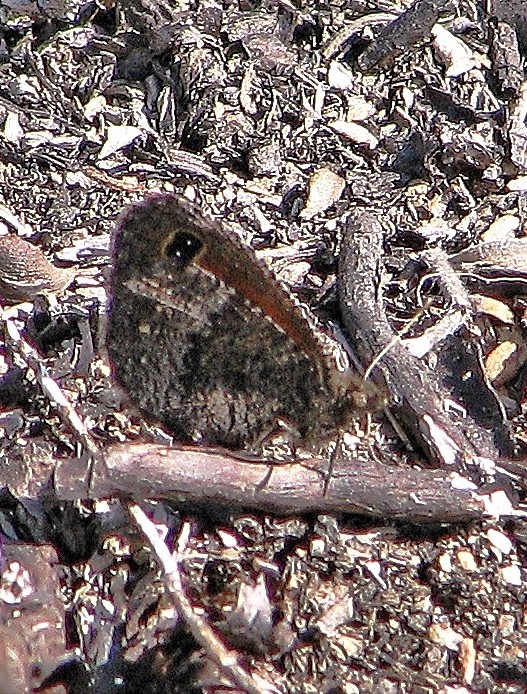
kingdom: Animalia
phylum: Arthropoda
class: Insecta
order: Lepidoptera
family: Nymphalidae
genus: Homoeonympha
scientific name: Homoeonympha boisduvalii
